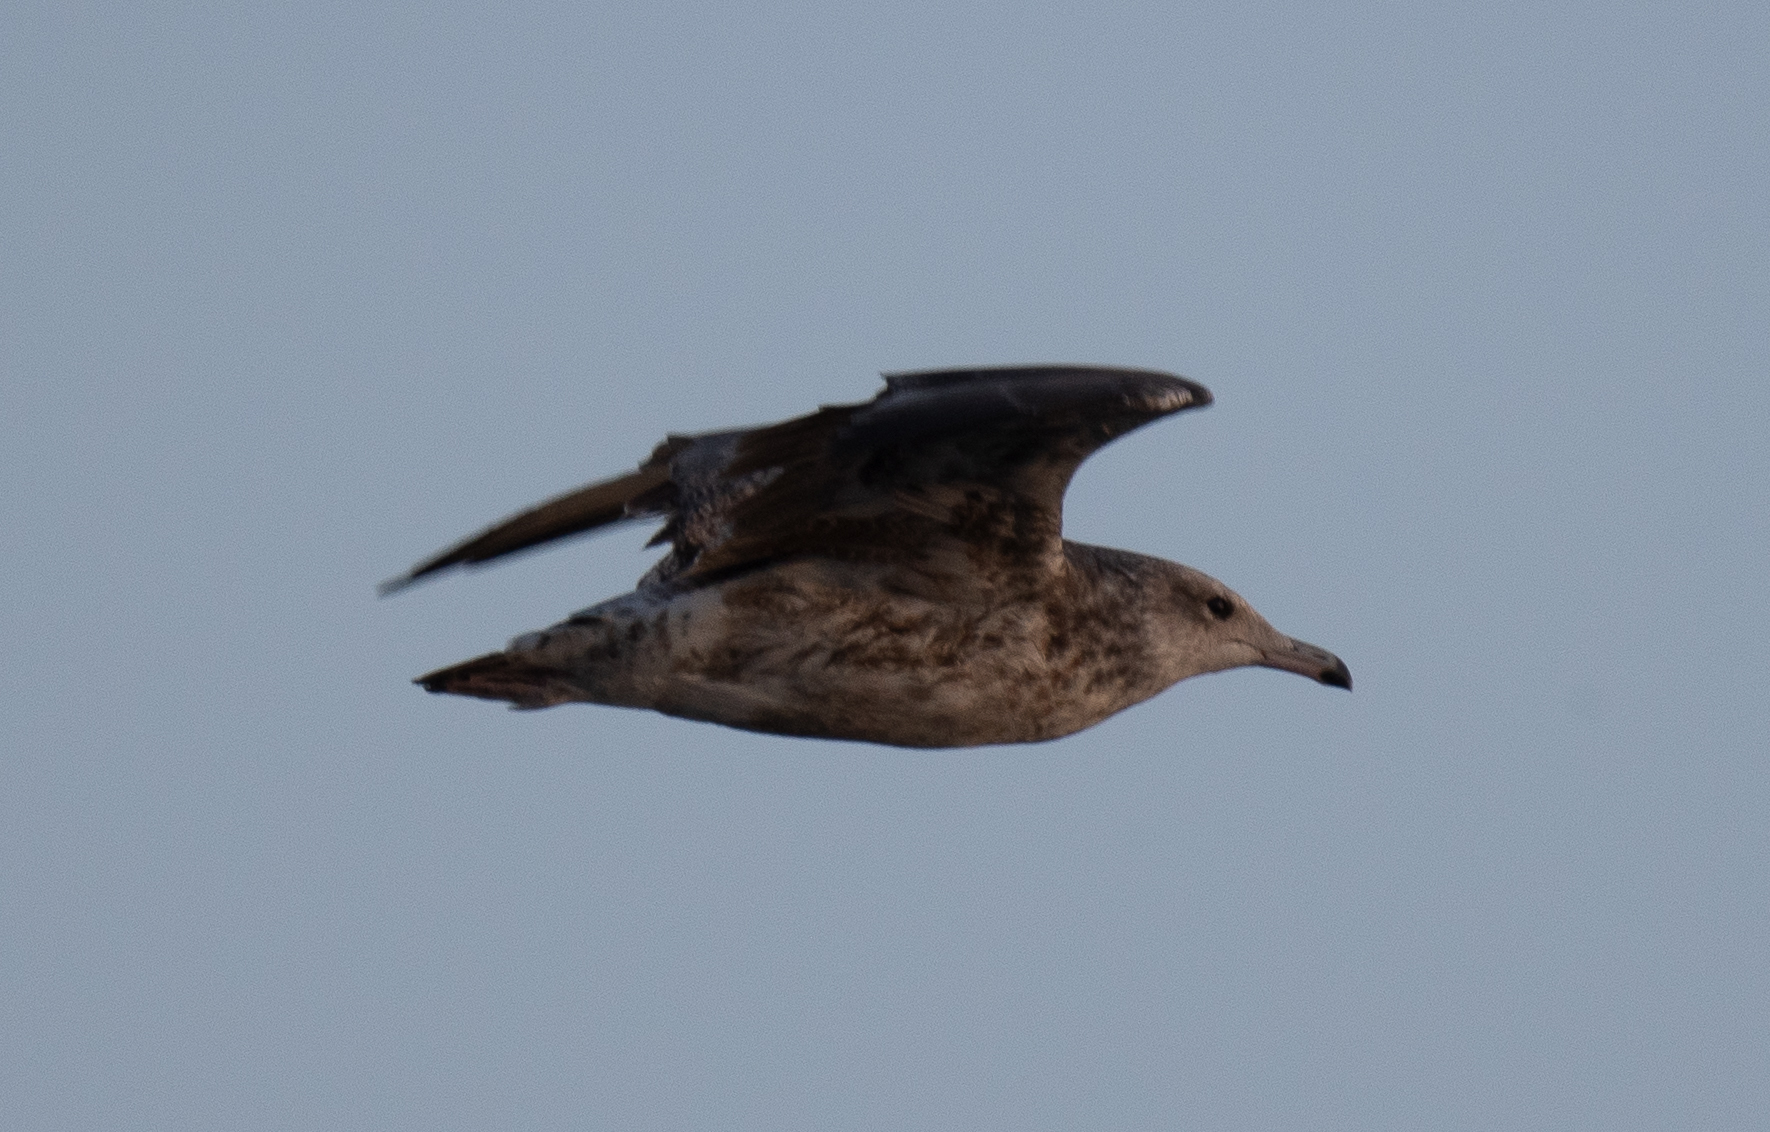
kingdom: Animalia
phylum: Chordata
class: Aves
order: Charadriiformes
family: Laridae
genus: Larus
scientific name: Larus californicus
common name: California gull
